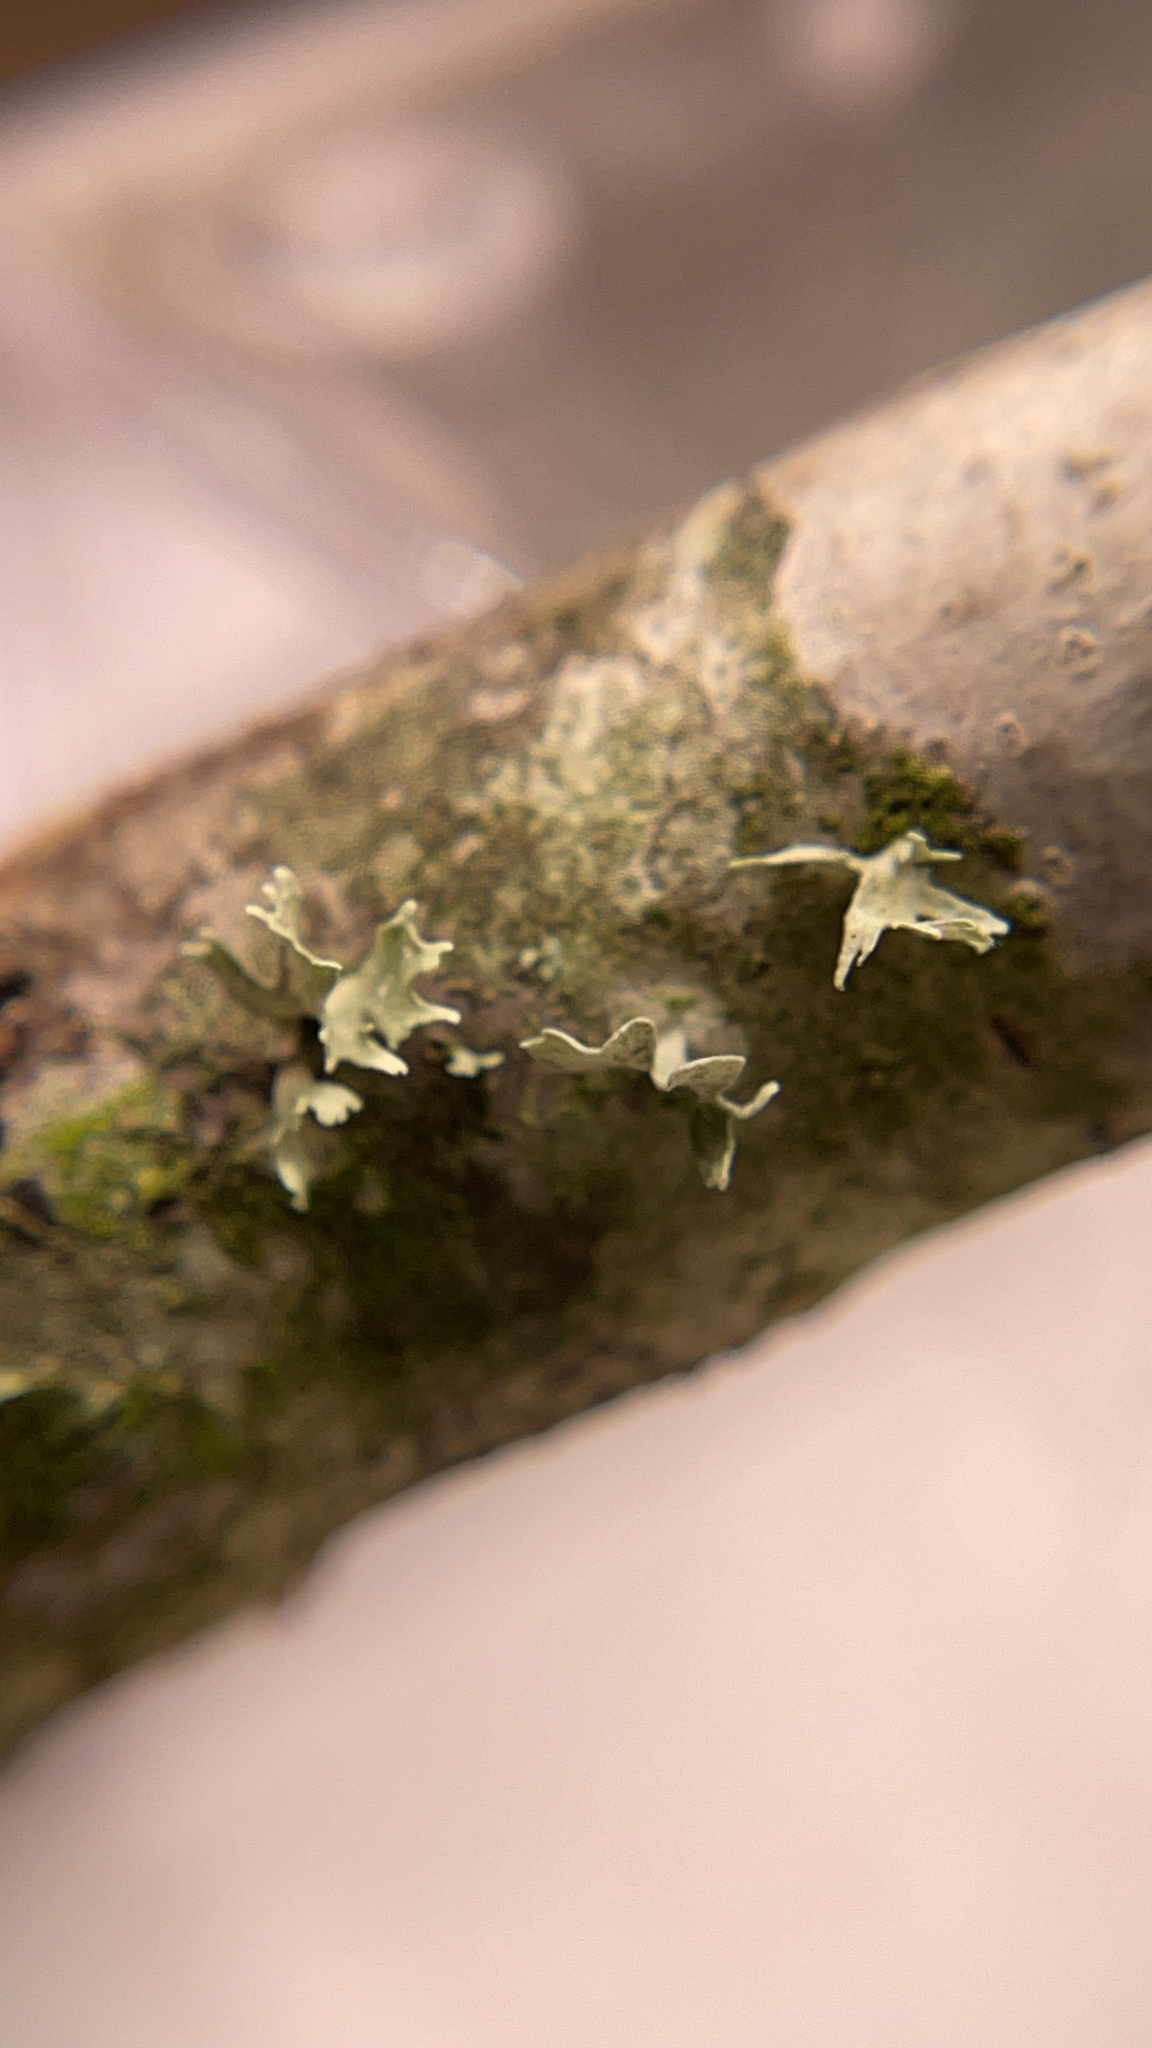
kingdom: Fungi
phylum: Ascomycota
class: Lecanoromycetes
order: Lecanorales
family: Ramalinaceae
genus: Ramalina
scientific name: Ramalina
